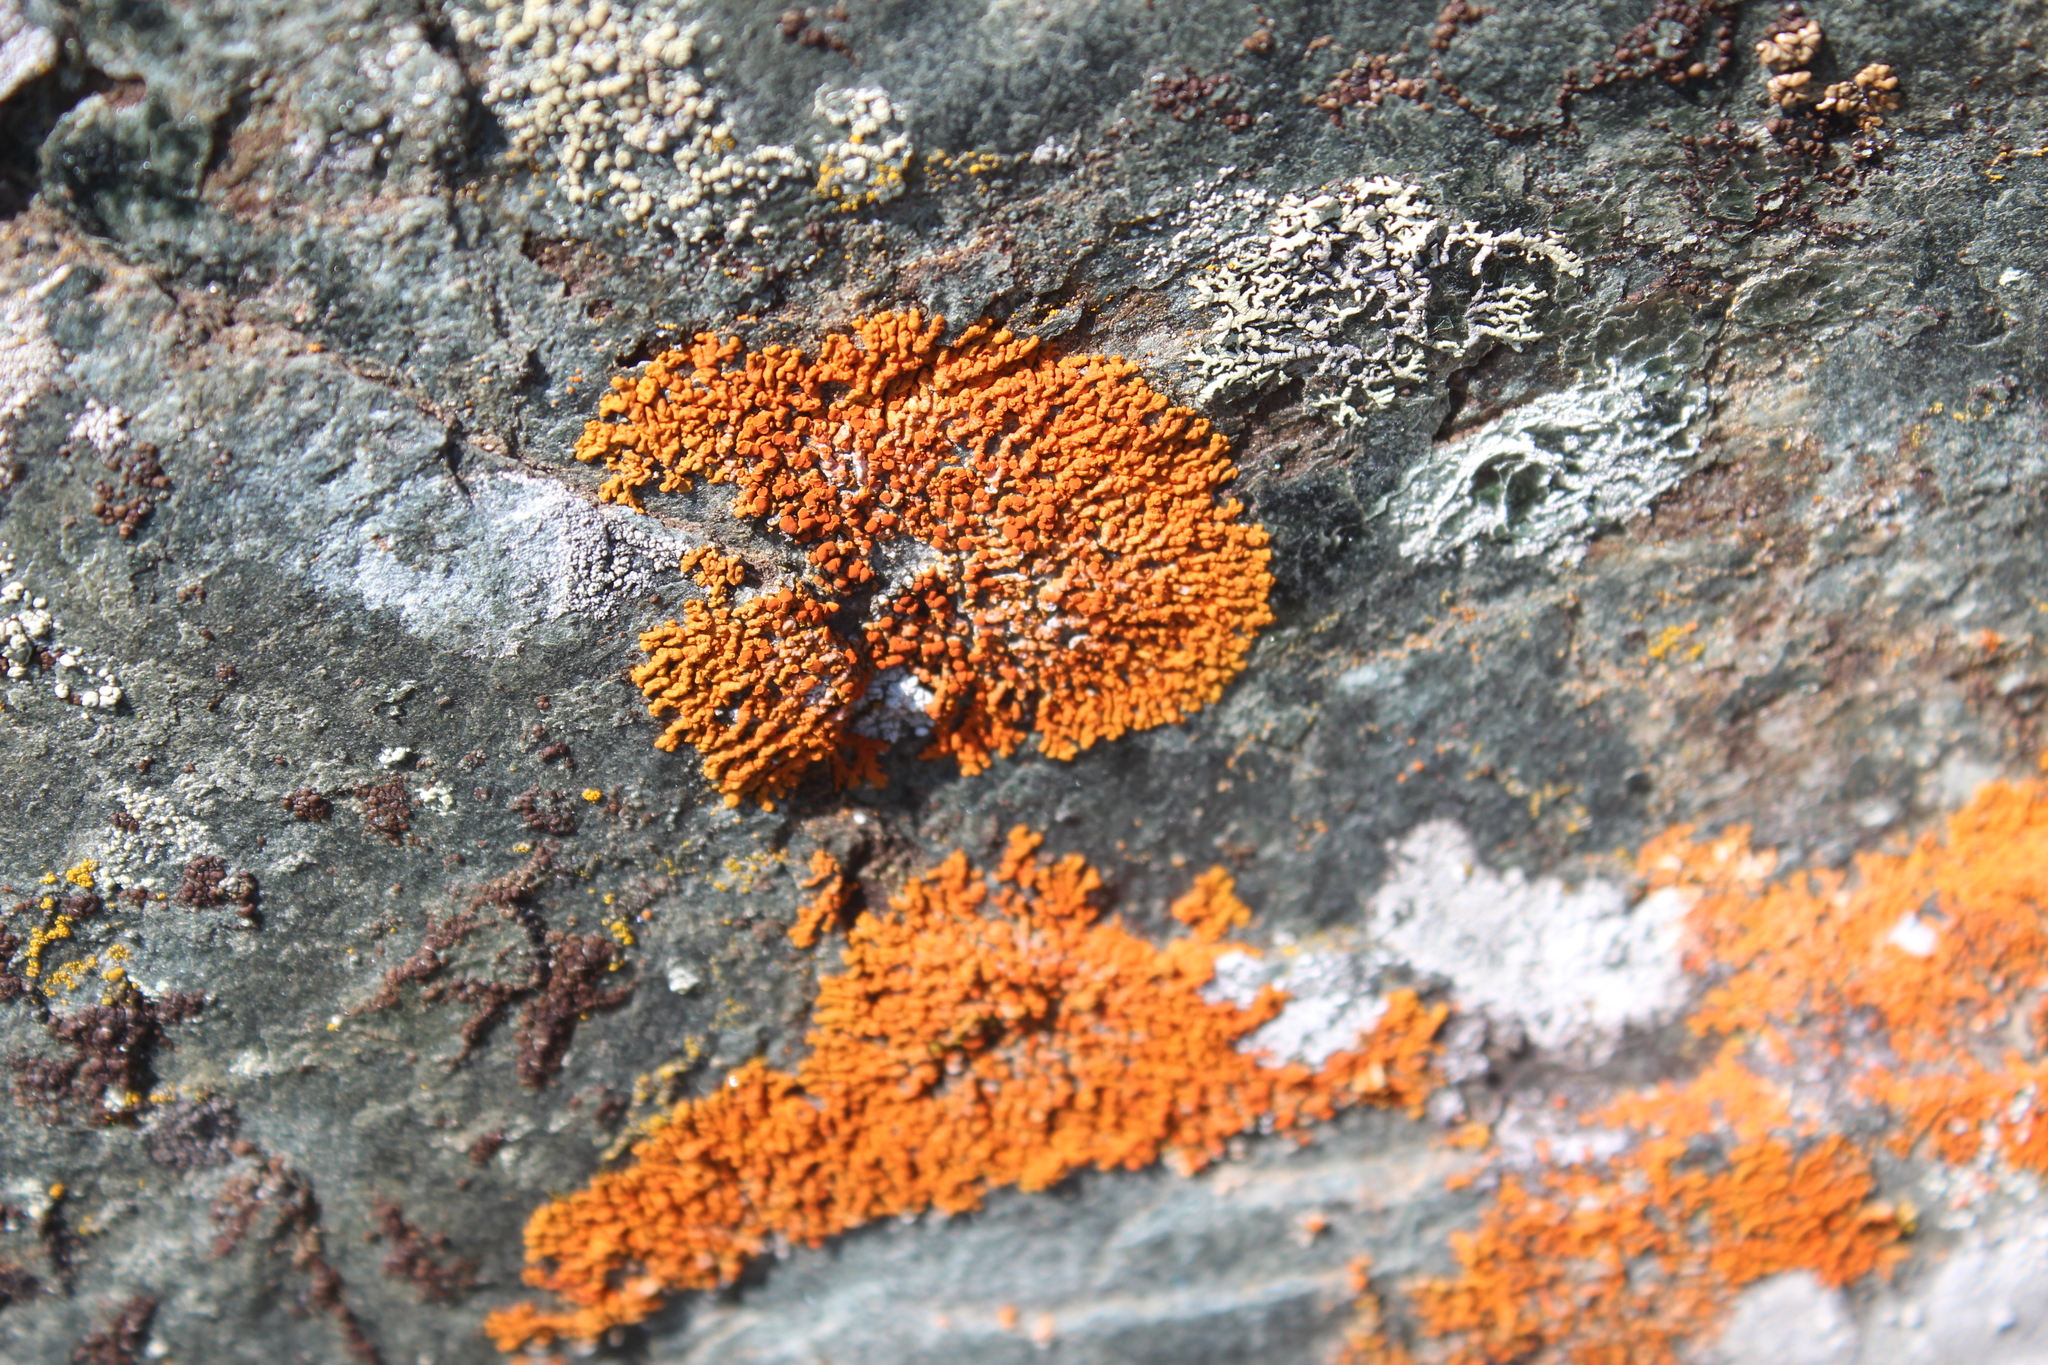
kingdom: Fungi
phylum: Ascomycota
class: Lecanoromycetes
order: Teloschistales
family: Teloschistaceae
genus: Xanthoria
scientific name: Xanthoria elegans
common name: Elegant sunburst lichen
